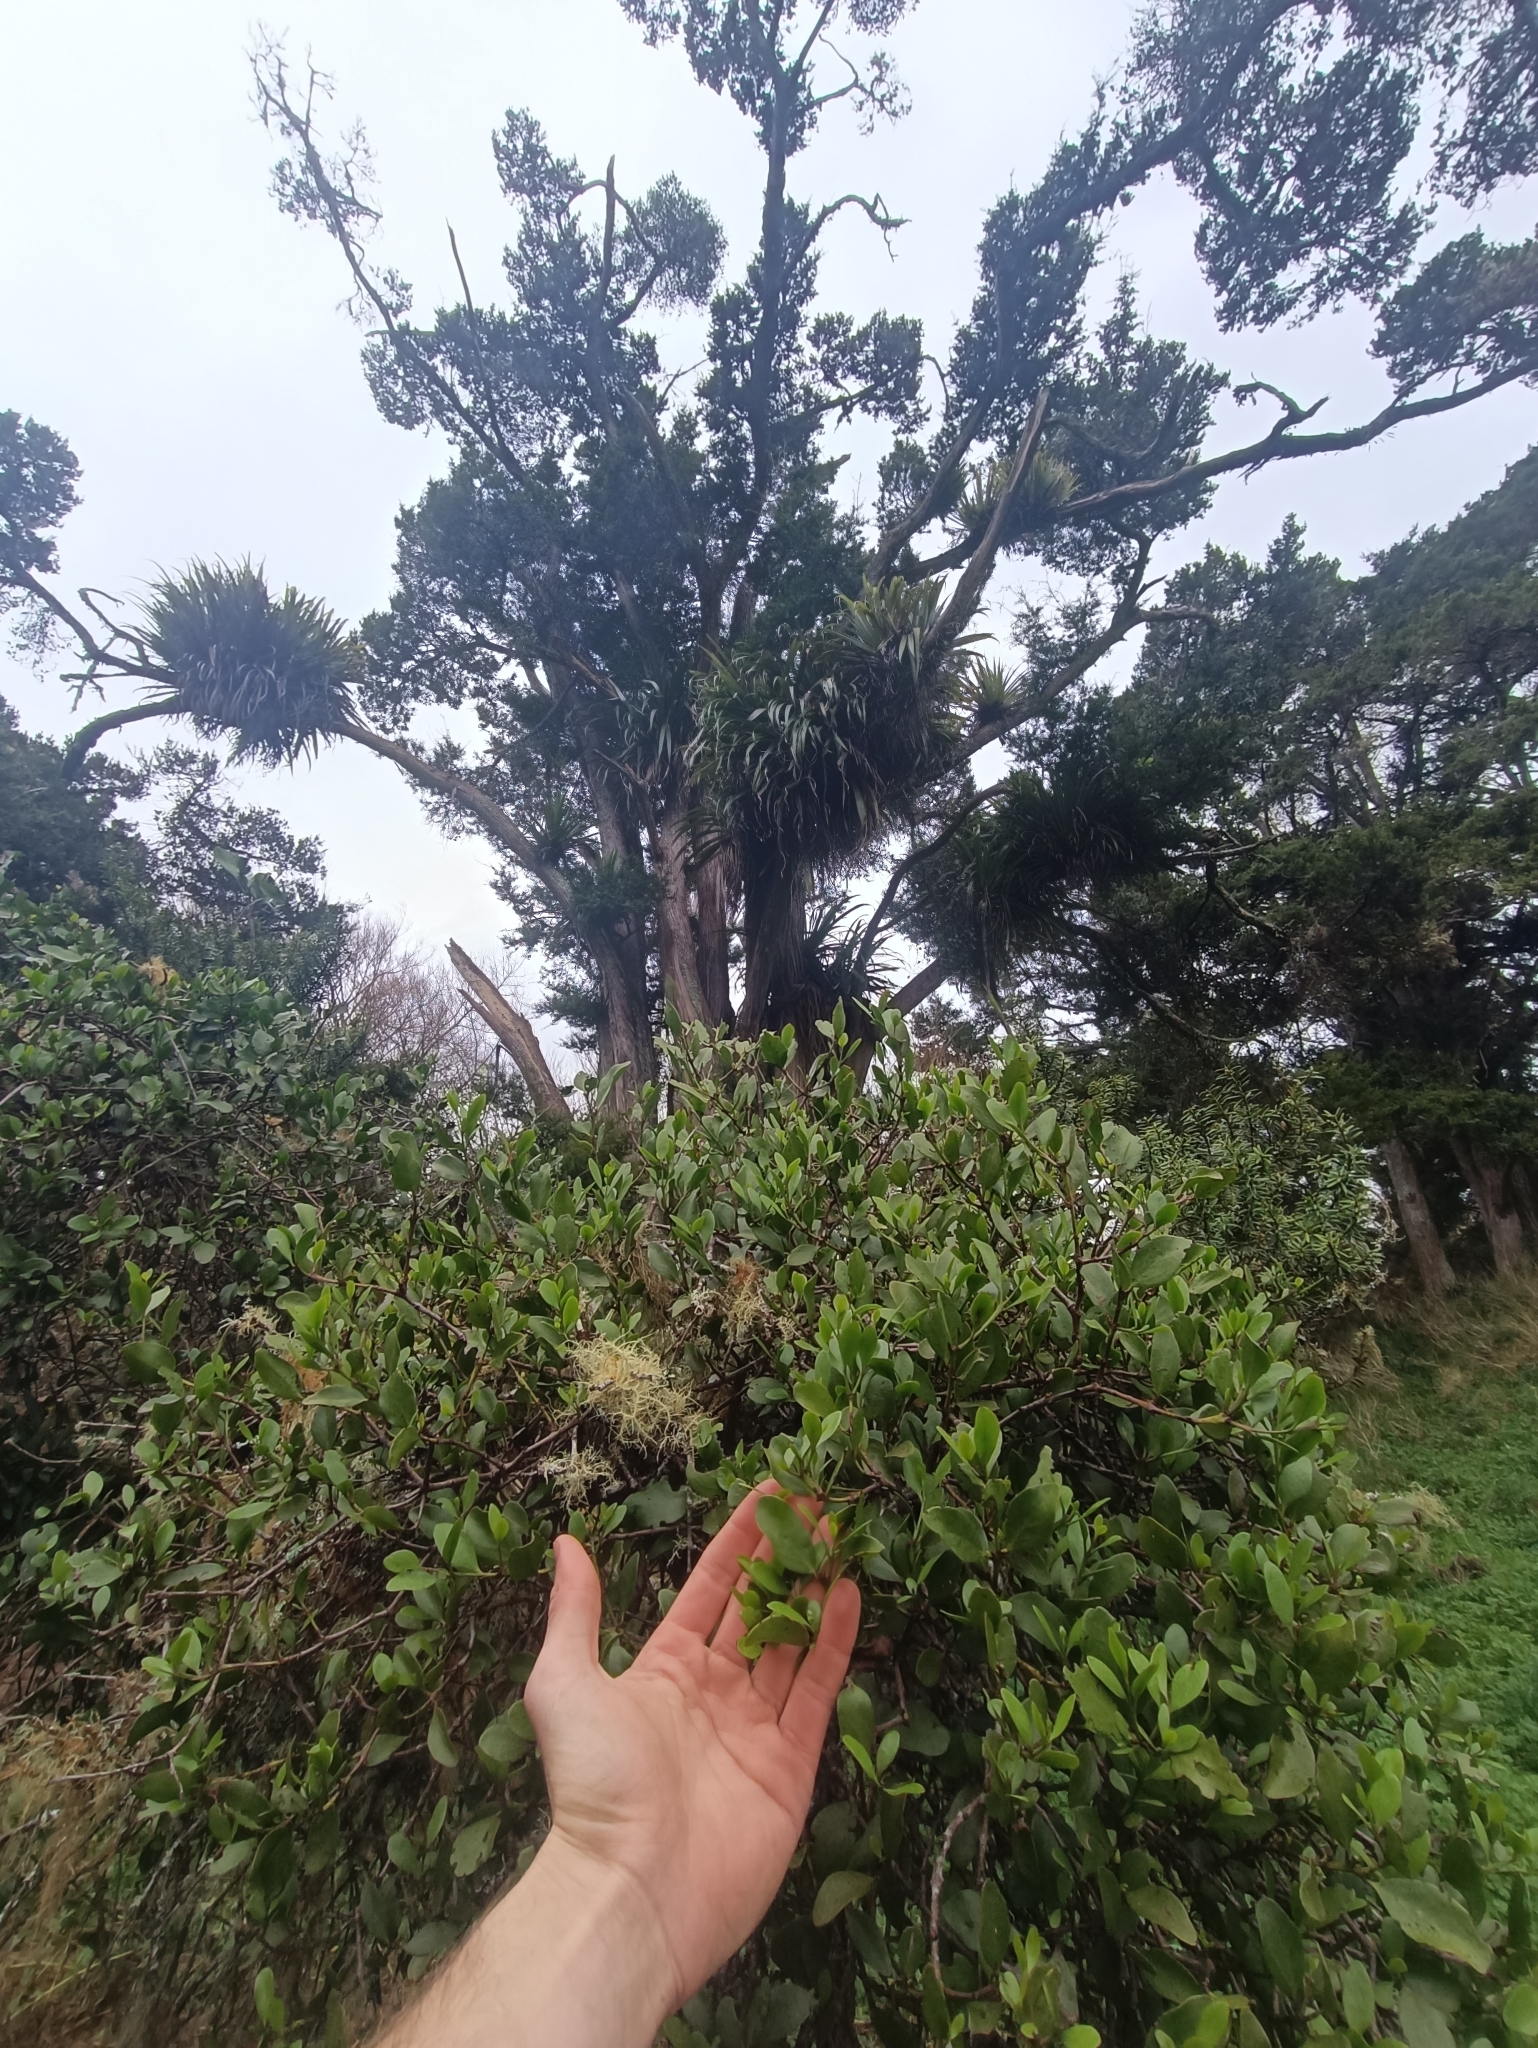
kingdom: Plantae
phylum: Tracheophyta
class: Magnoliopsida
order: Santalales
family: Loranthaceae
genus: Ileostylus
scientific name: Ileostylus micranthus
